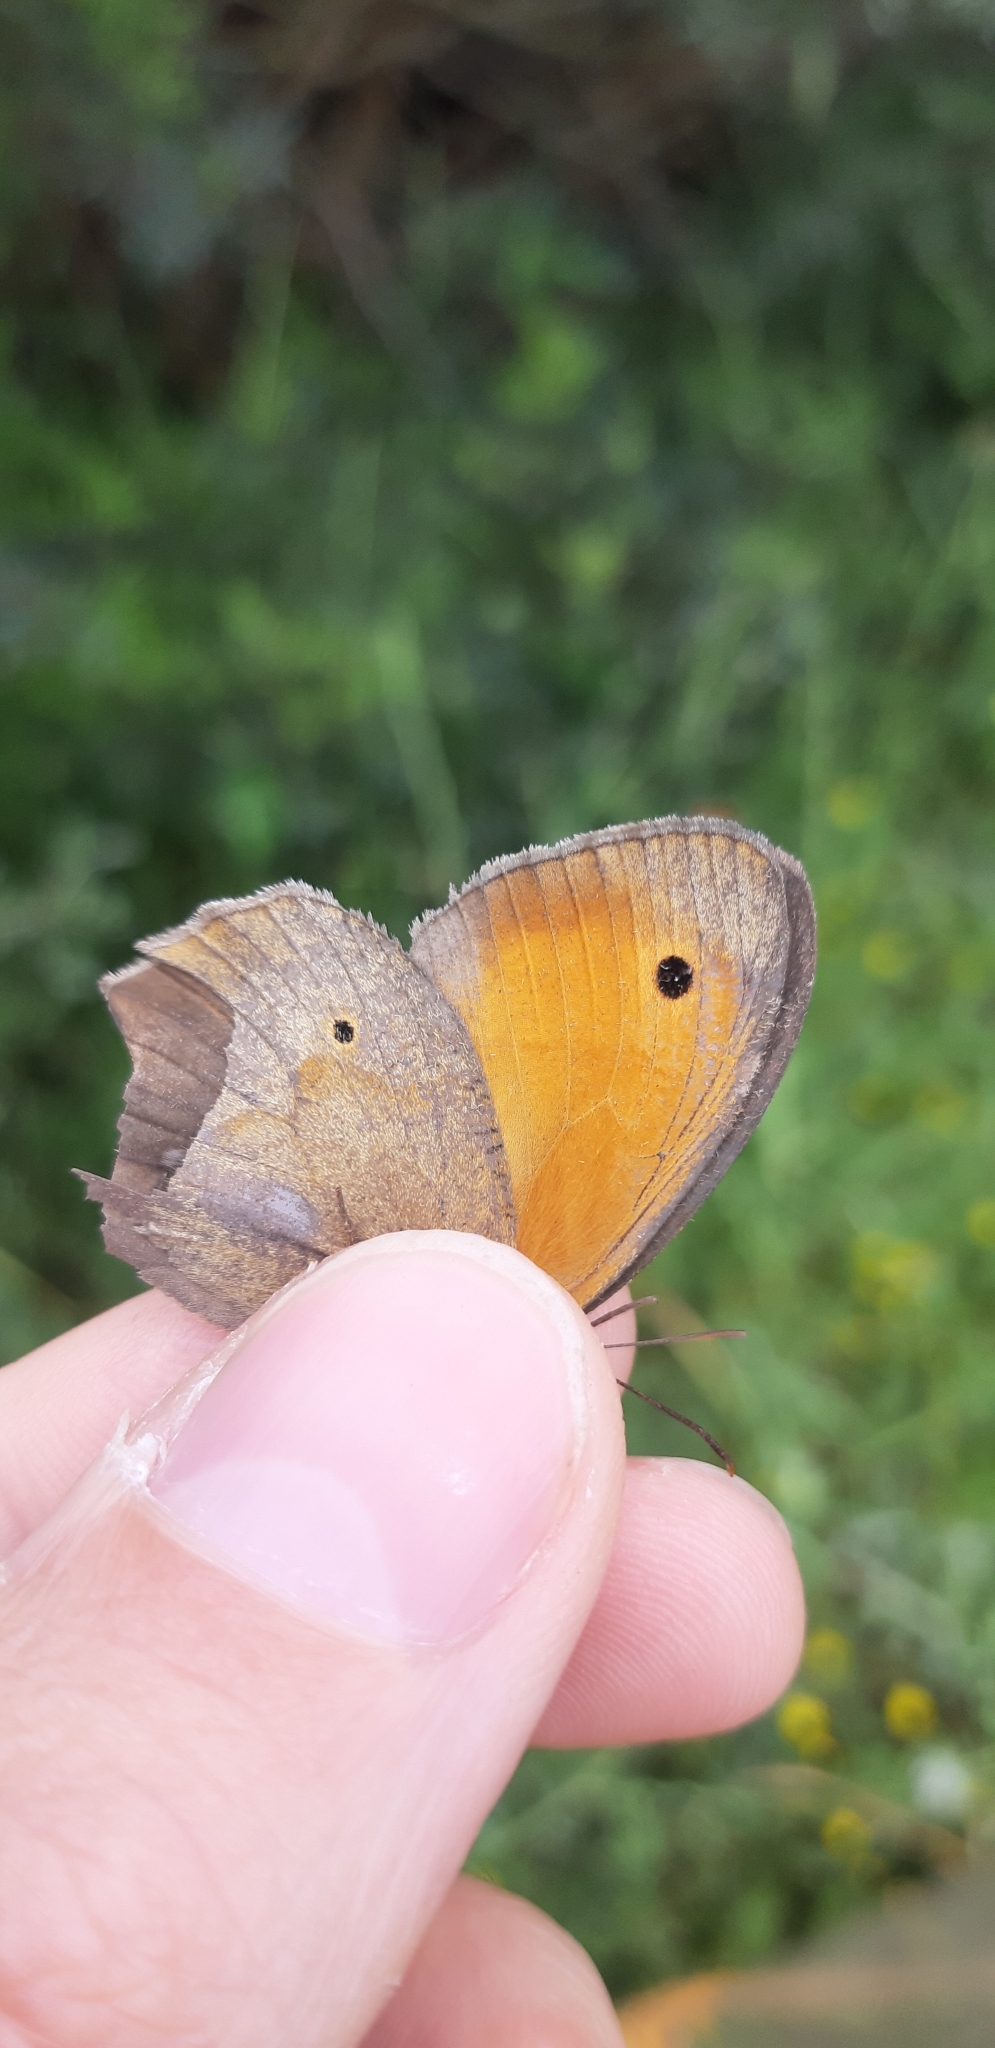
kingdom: Animalia
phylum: Arthropoda
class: Insecta
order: Lepidoptera
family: Nymphalidae
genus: Maniola
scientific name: Maniola jurtina
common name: Meadow brown
